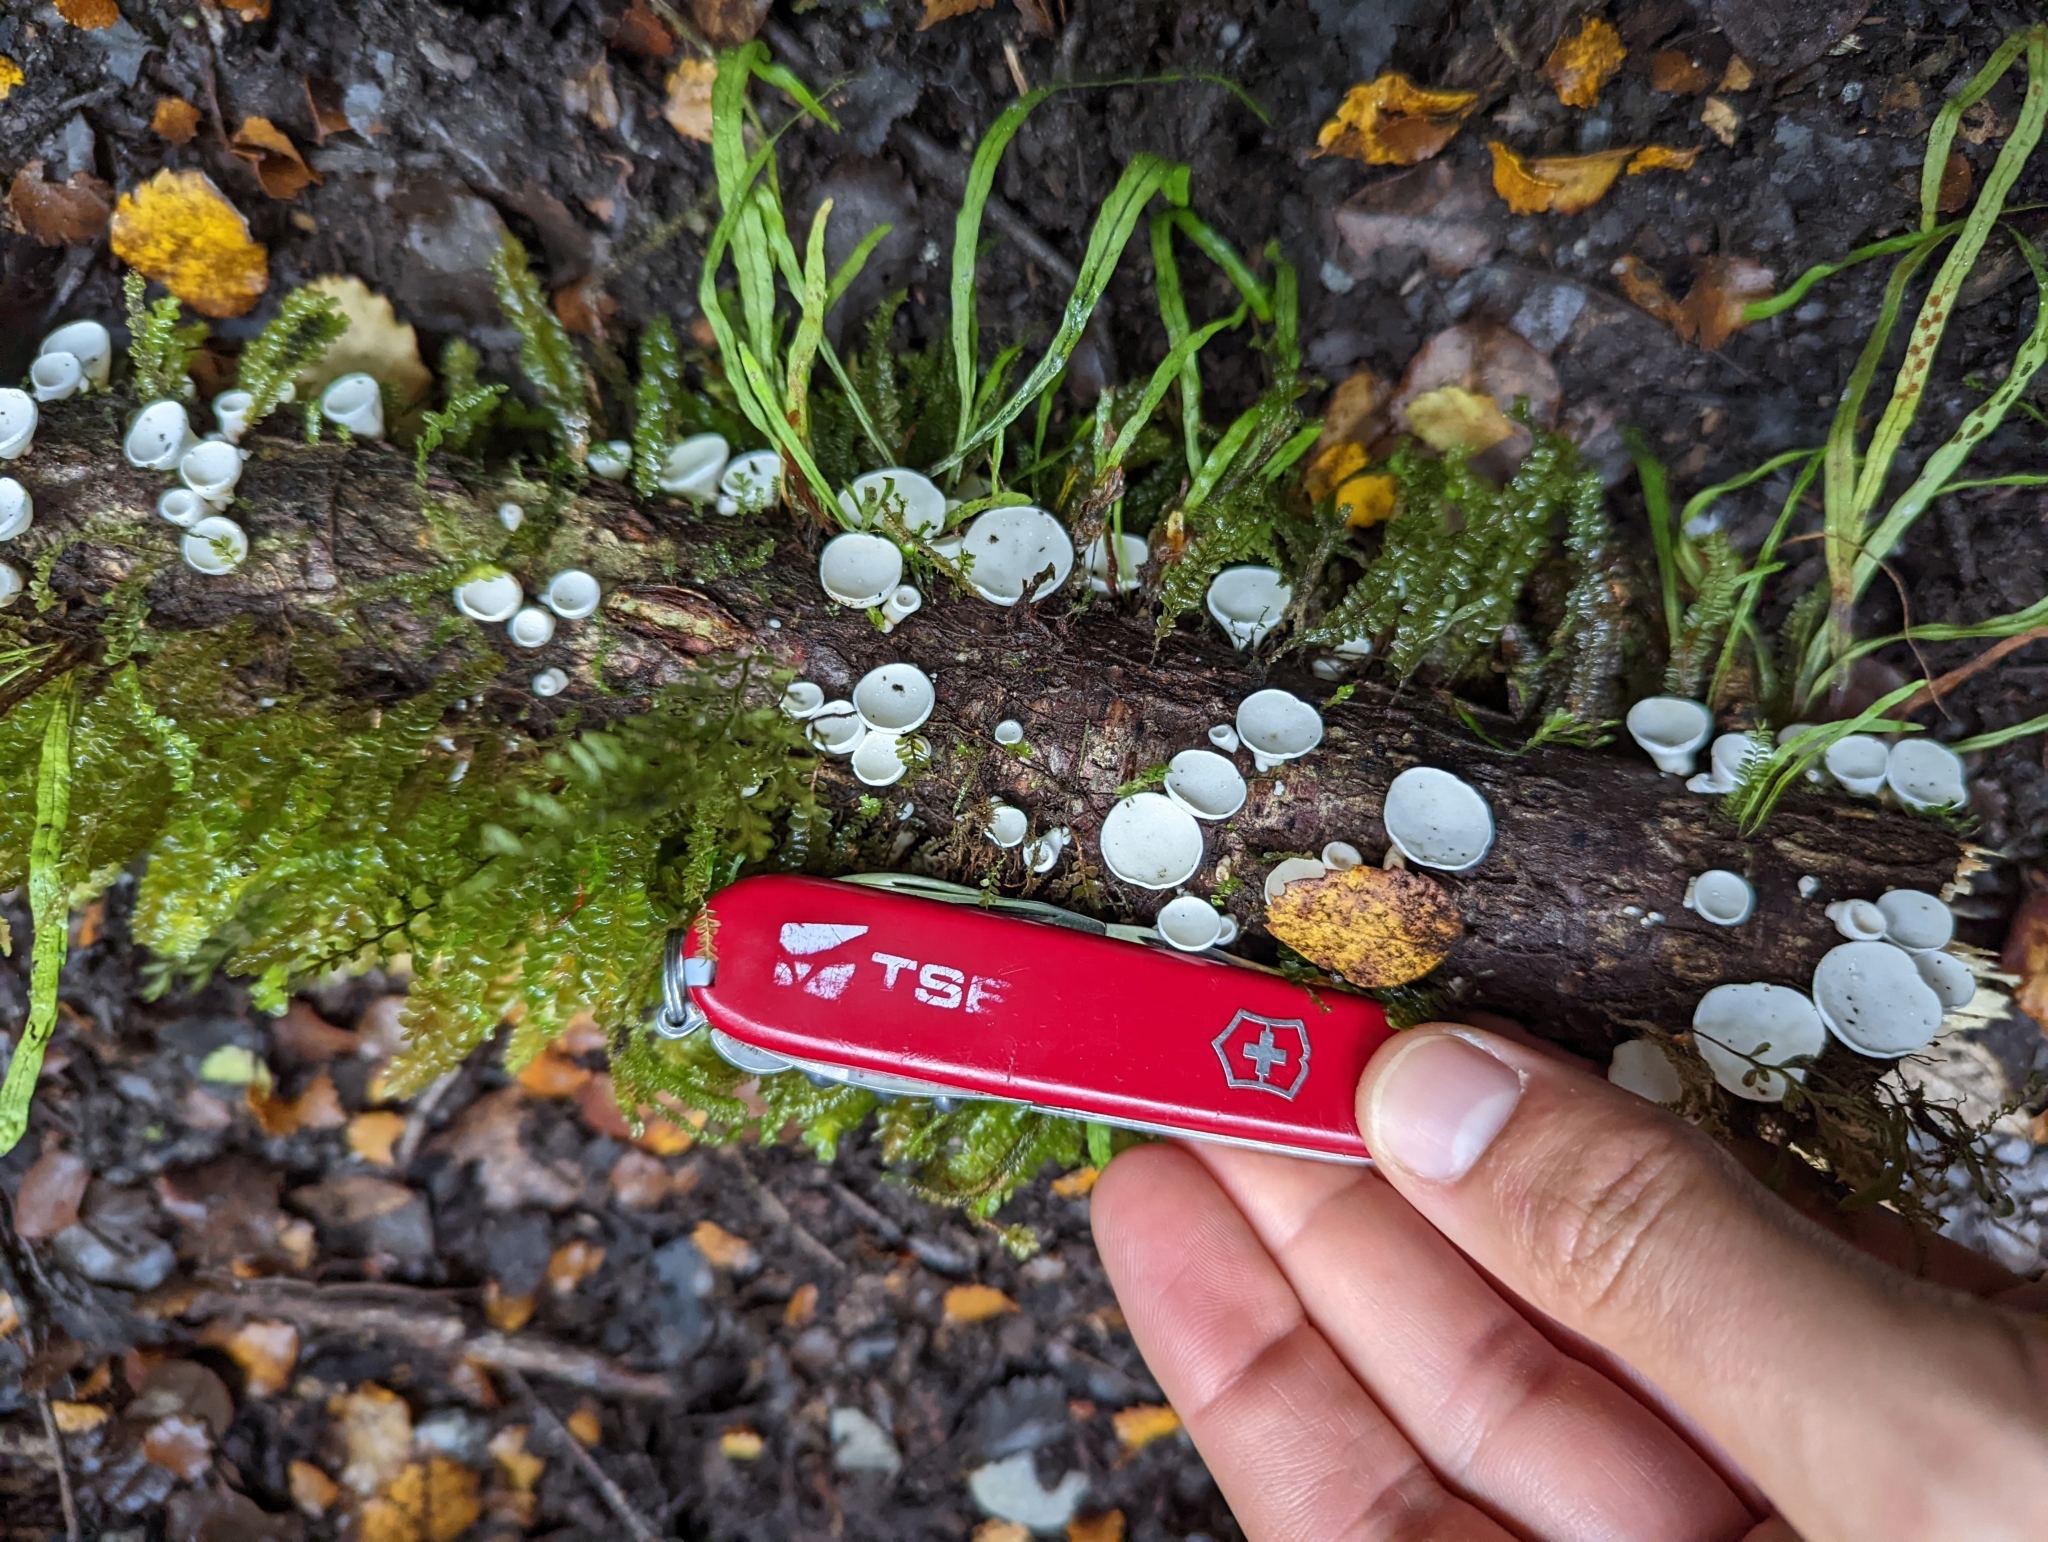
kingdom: Fungi
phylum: Basidiomycota
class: Agaricomycetes
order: Polyporales
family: Irpicaceae
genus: Gloeoporus
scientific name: Gloeoporus phlebophorus
